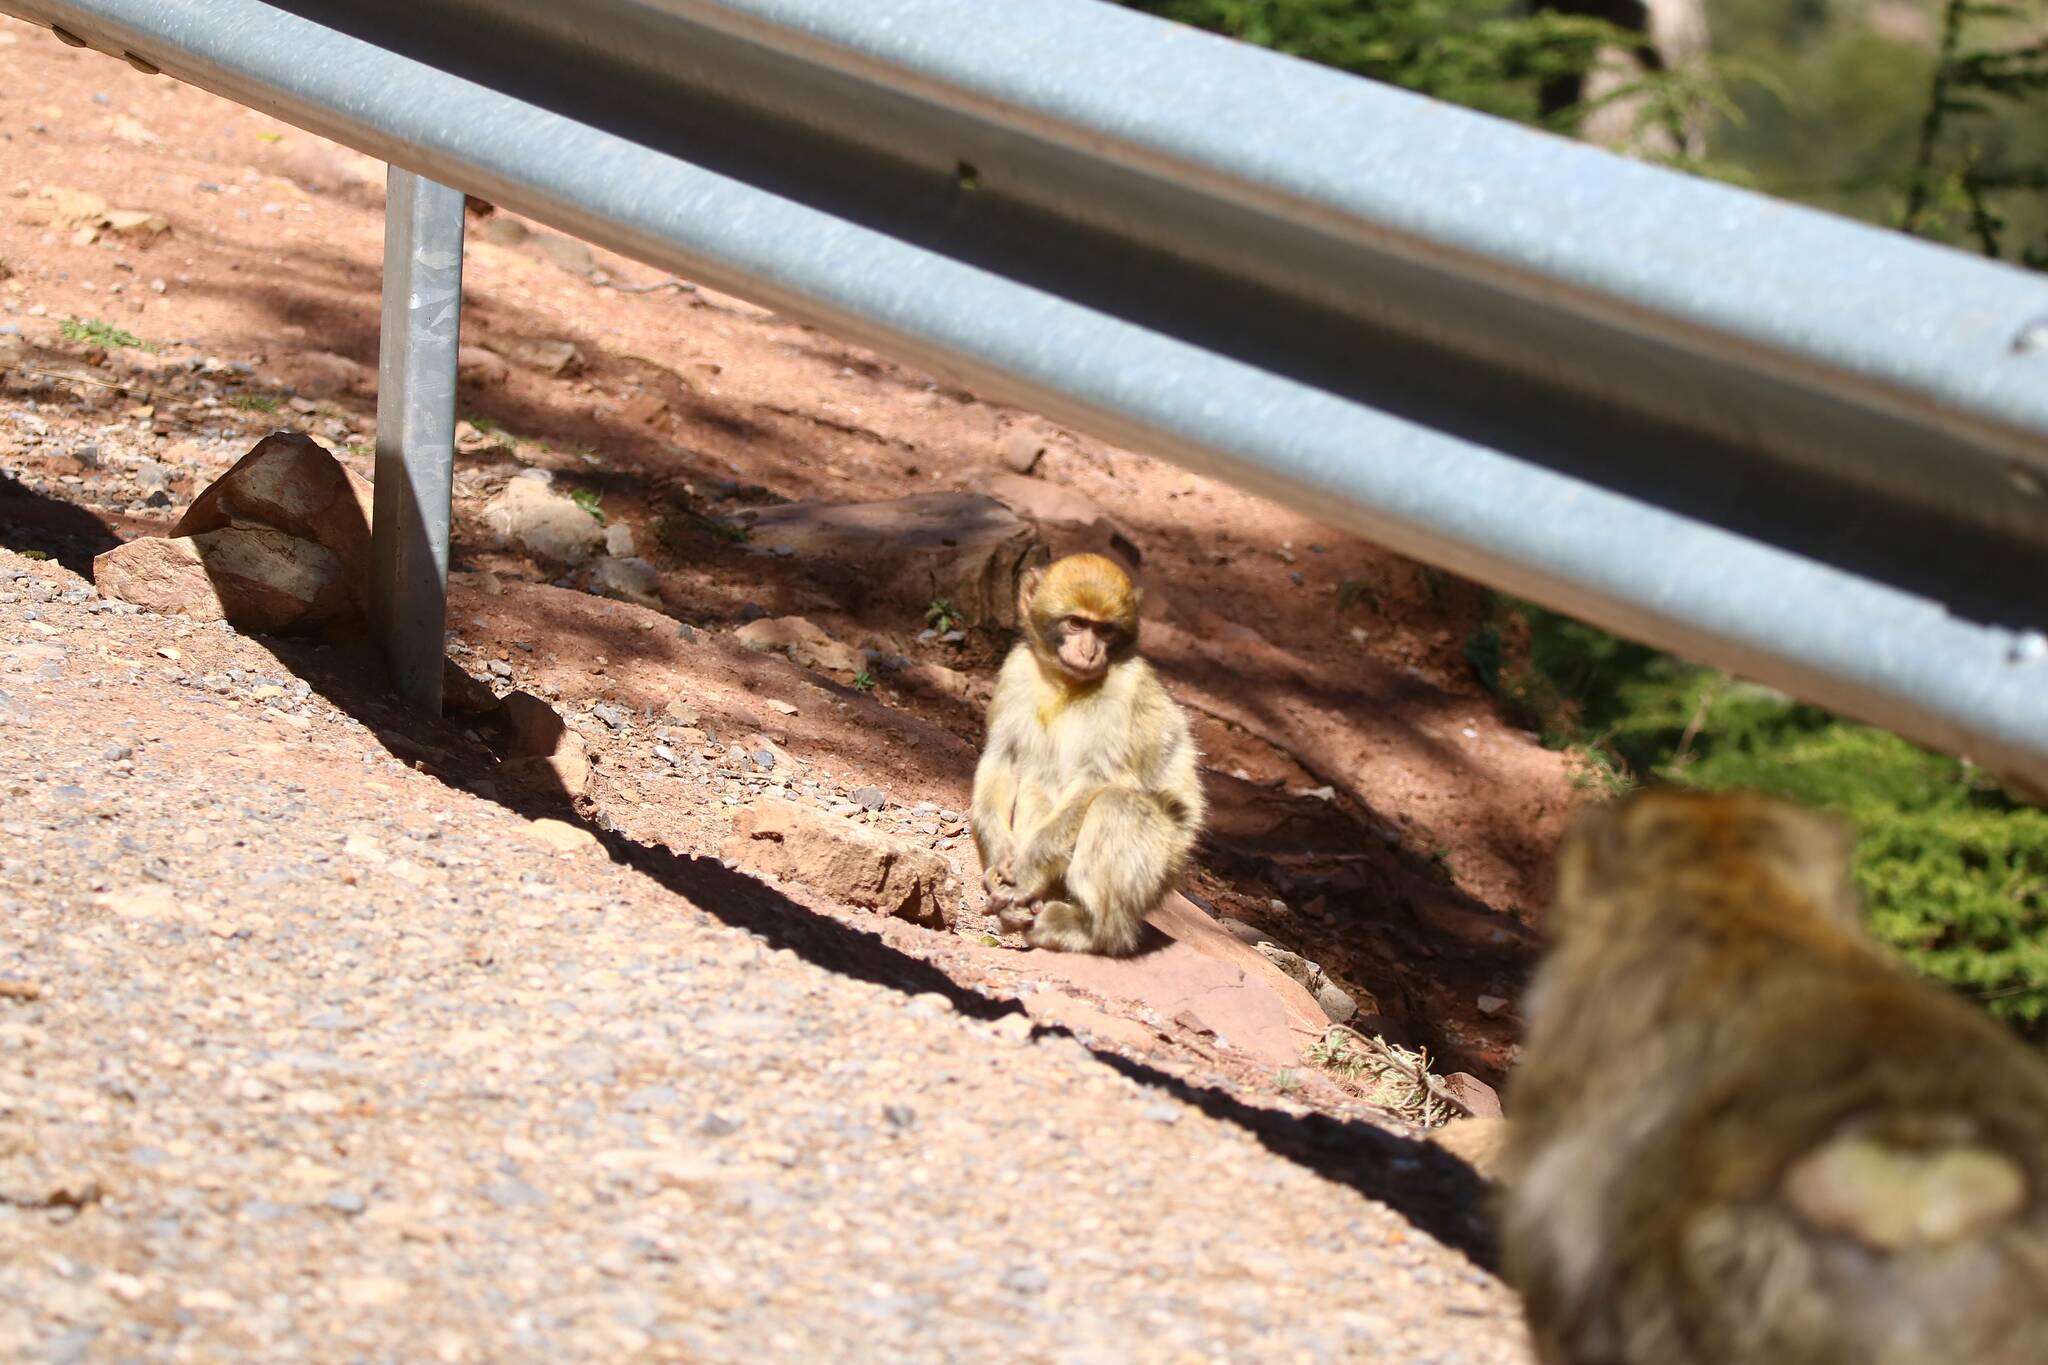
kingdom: Animalia
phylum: Chordata
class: Mammalia
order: Primates
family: Cercopithecidae
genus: Macaca
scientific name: Macaca sylvanus
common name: Barbary macaque
